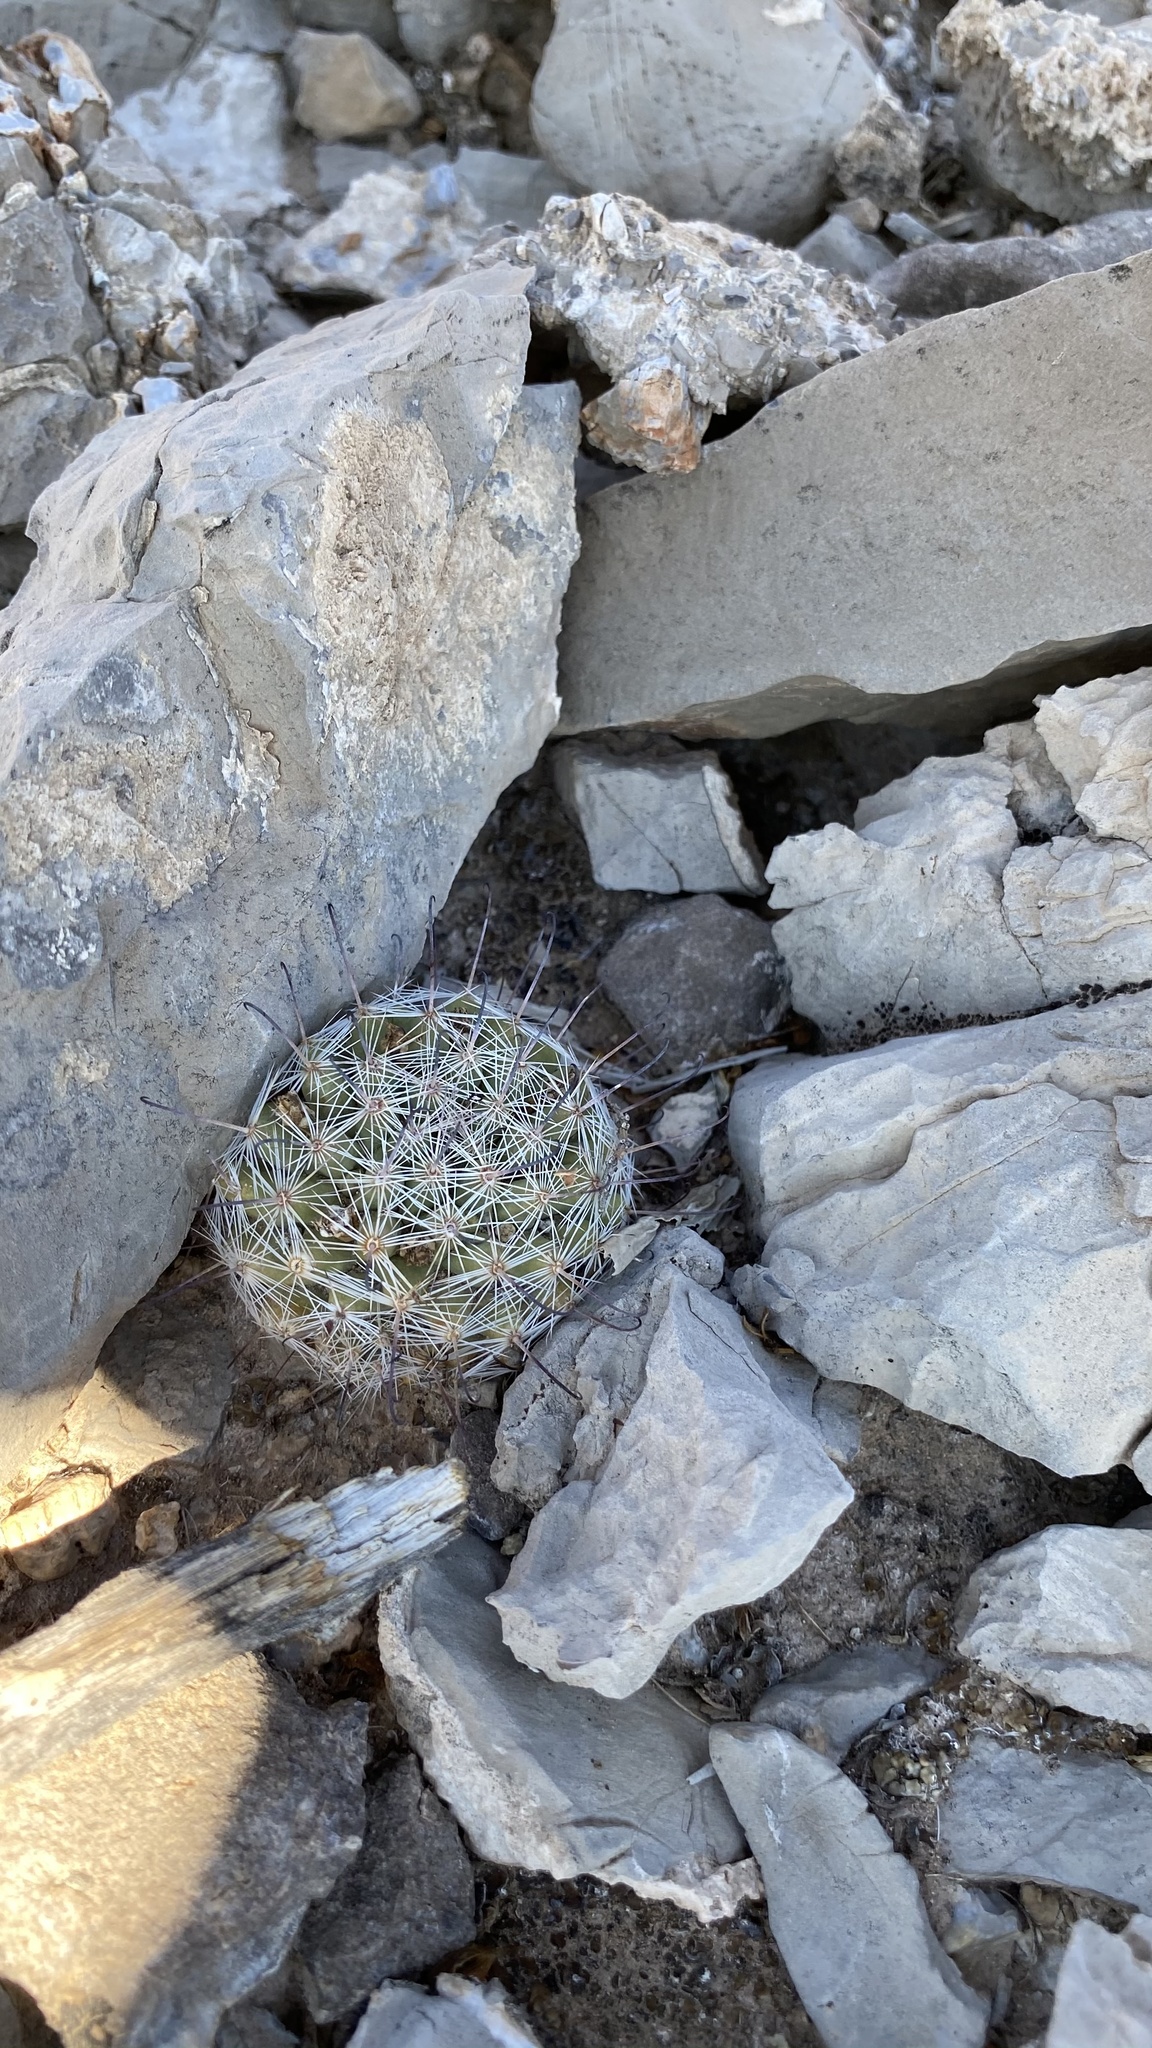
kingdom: Plantae
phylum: Tracheophyta
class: Magnoliopsida
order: Caryophyllales
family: Cactaceae
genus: Cochemiea
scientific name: Cochemiea grahamii
